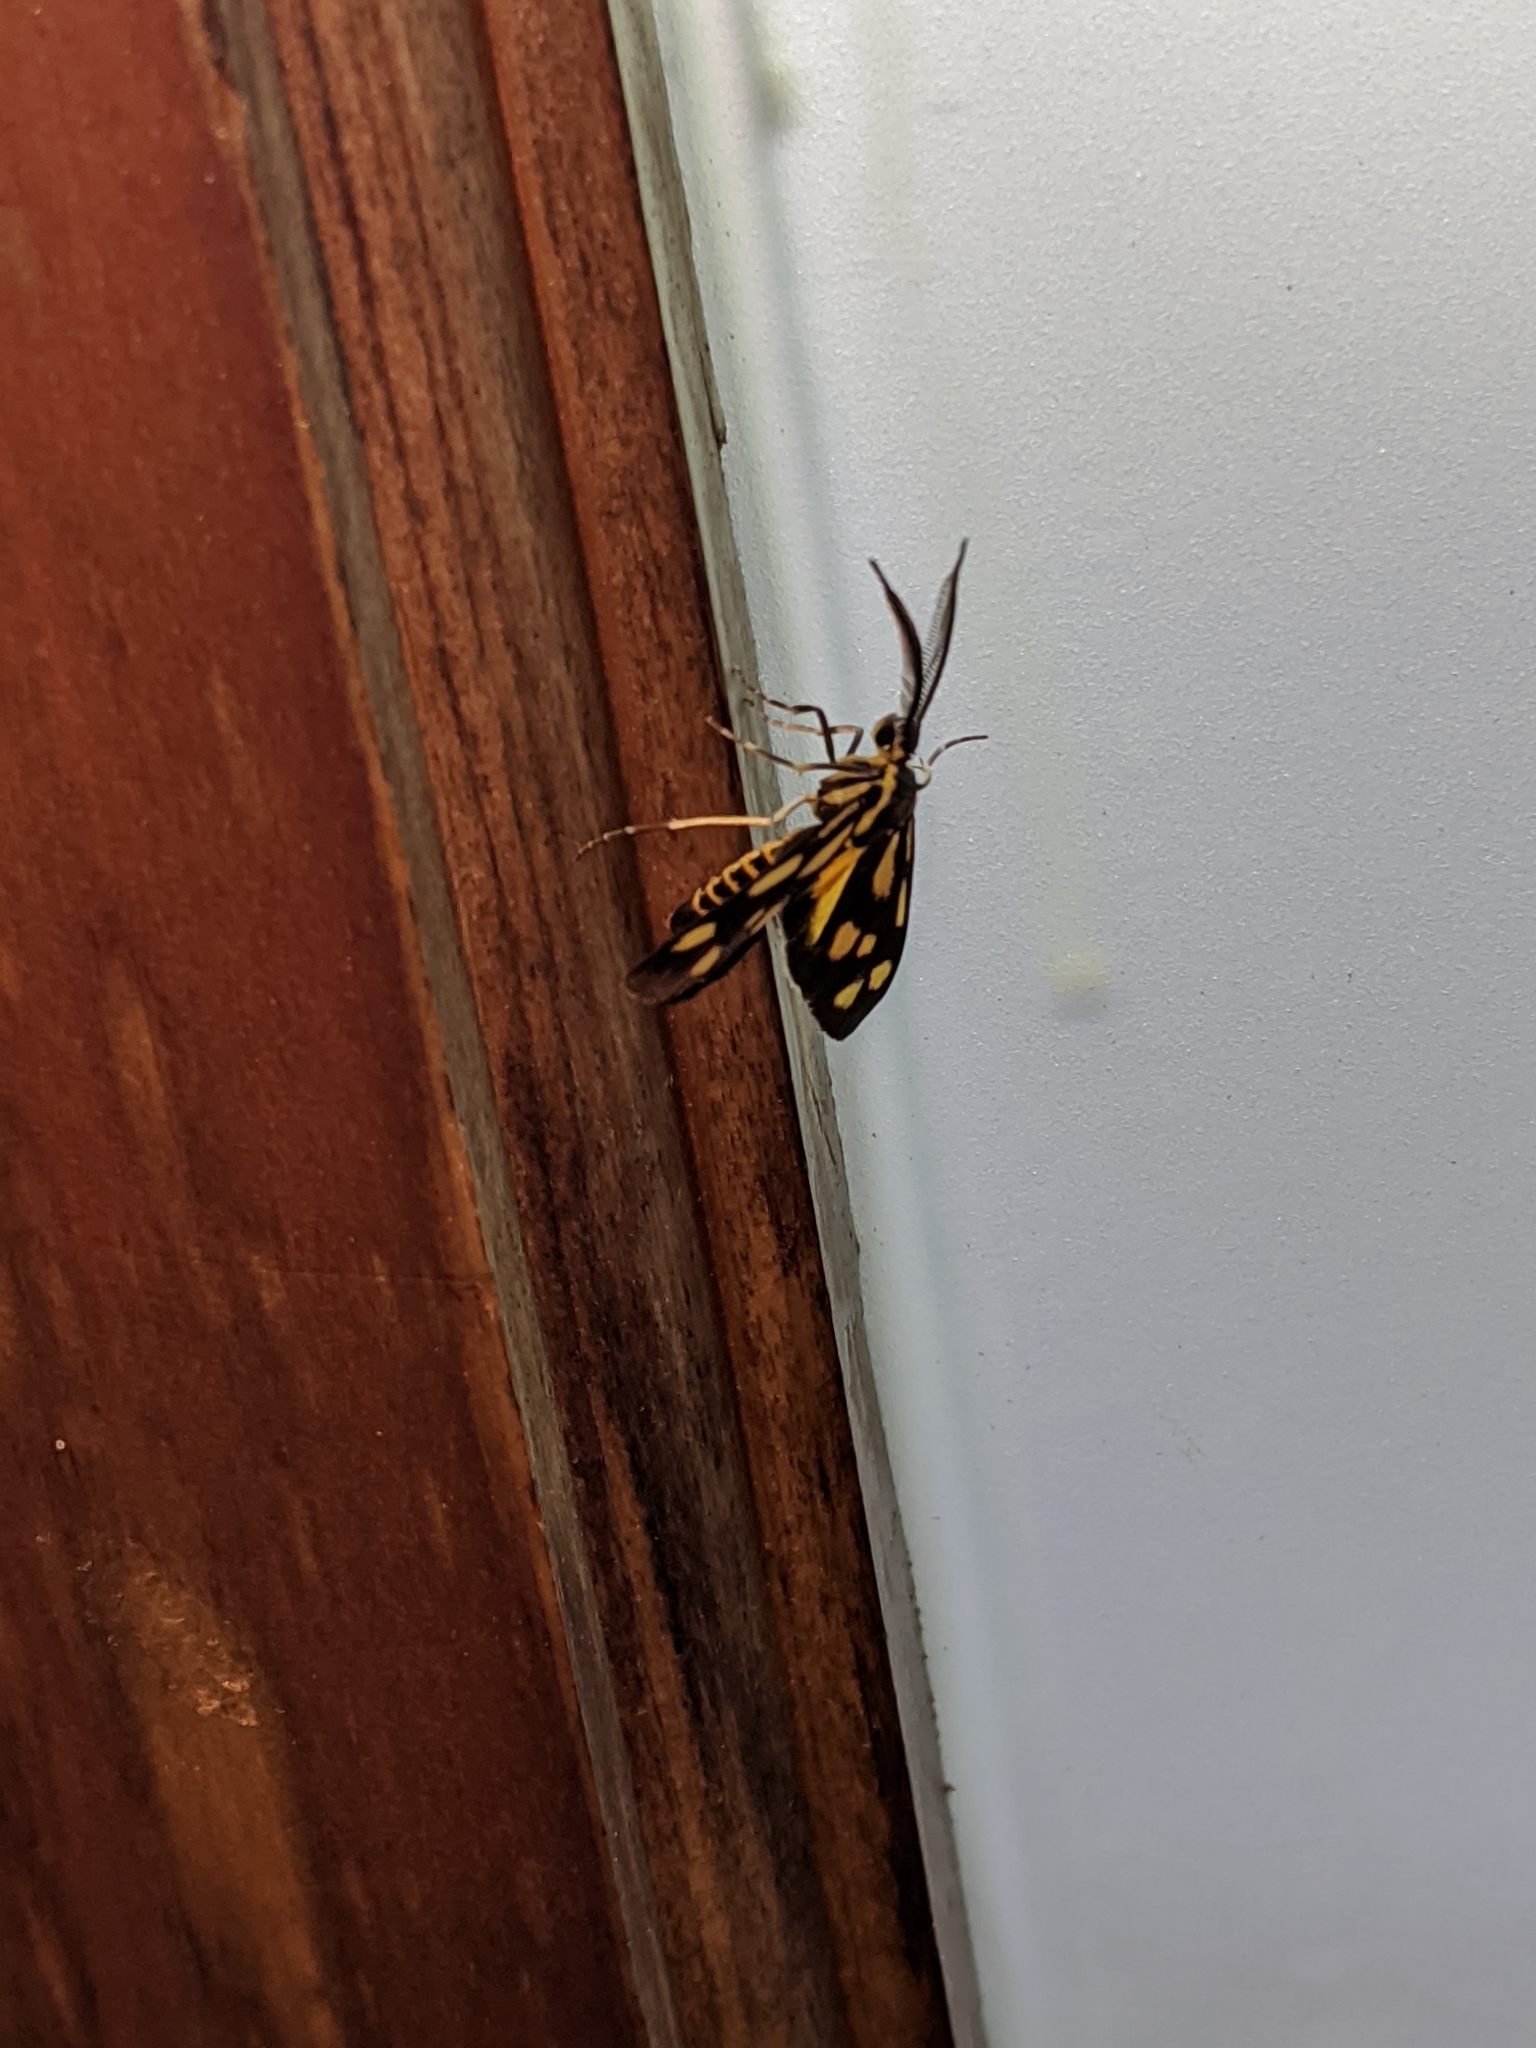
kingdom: Animalia
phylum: Arthropoda
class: Insecta
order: Lepidoptera
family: Zygaenidae
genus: Artona
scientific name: Artona
